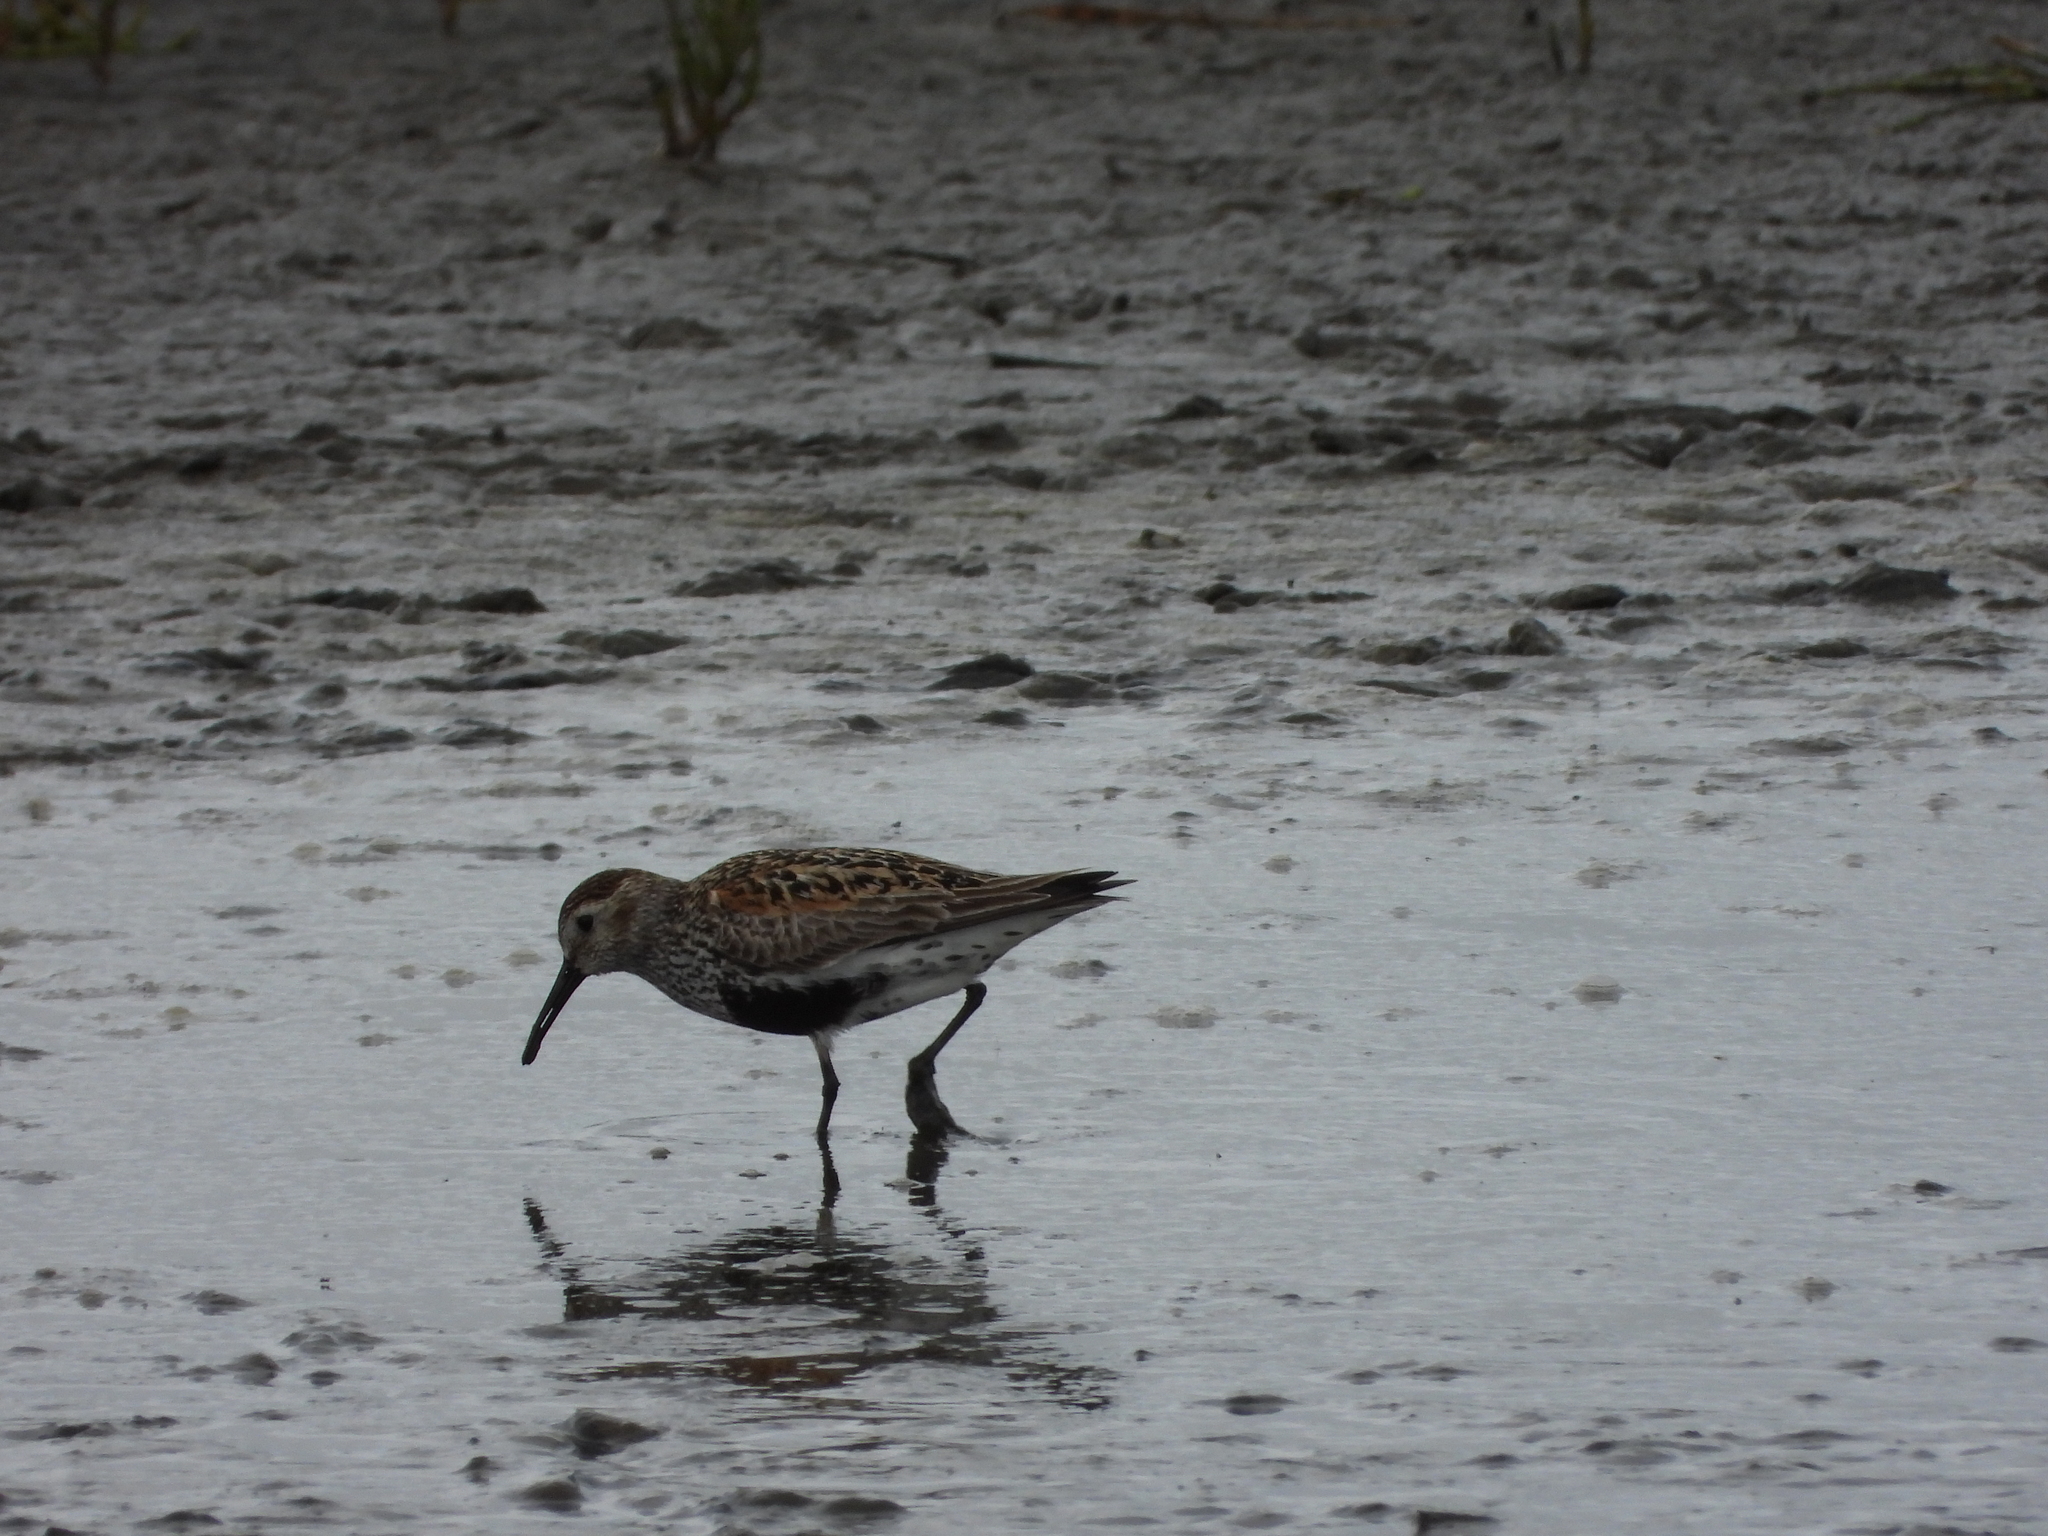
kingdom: Animalia
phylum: Chordata
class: Aves
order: Charadriiformes
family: Scolopacidae
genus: Calidris
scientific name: Calidris alpina
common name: Dunlin
